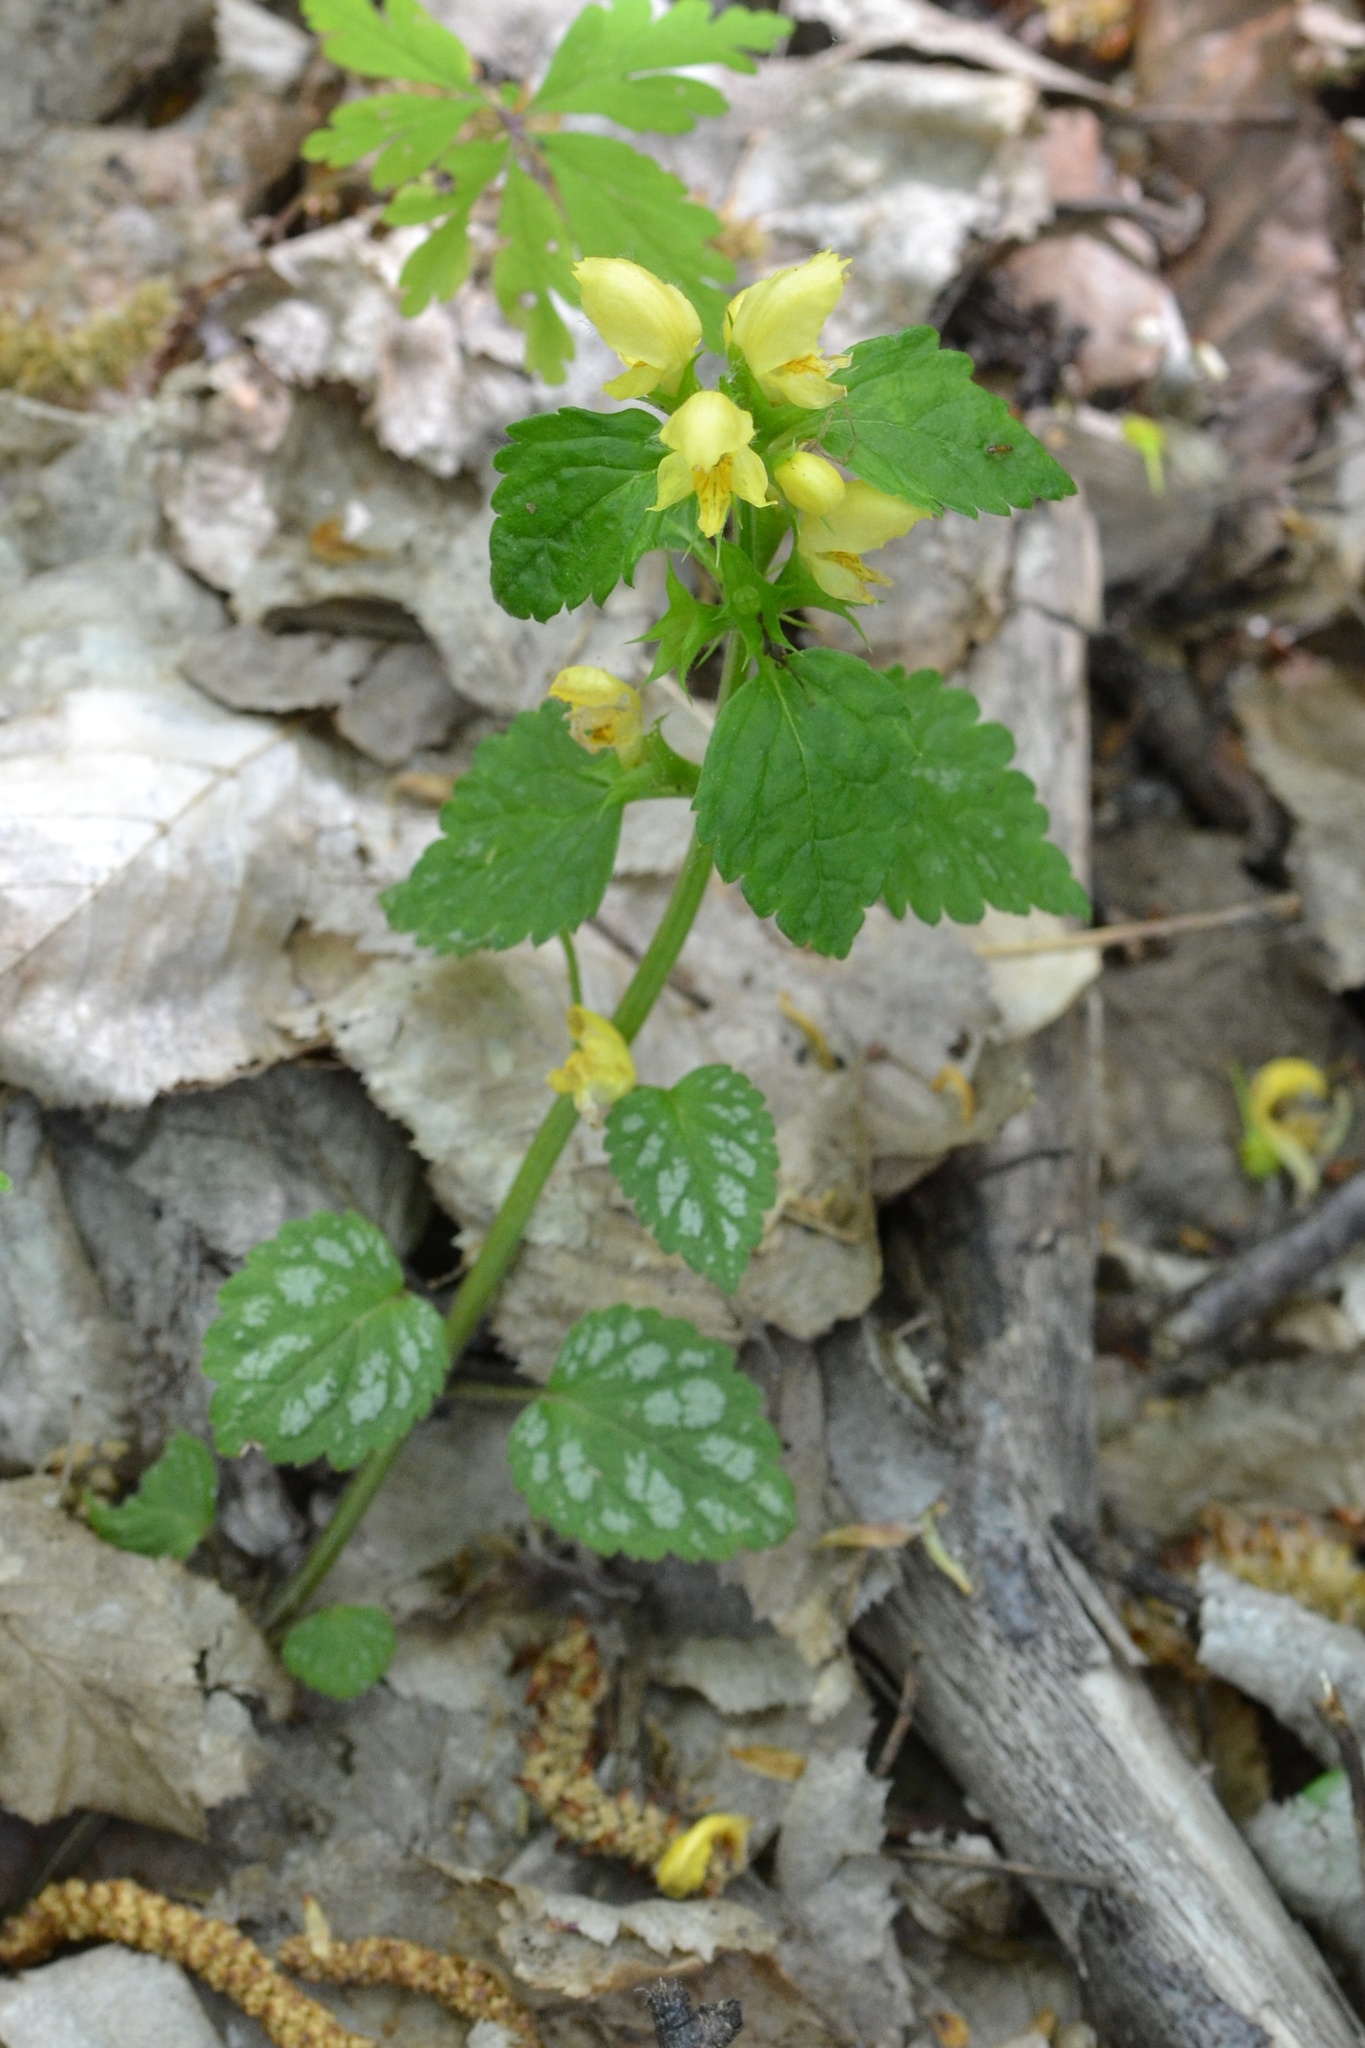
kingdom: Plantae
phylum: Tracheophyta
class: Magnoliopsida
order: Lamiales
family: Lamiaceae
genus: Lamium
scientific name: Lamium galeobdolon
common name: Yellow archangel
